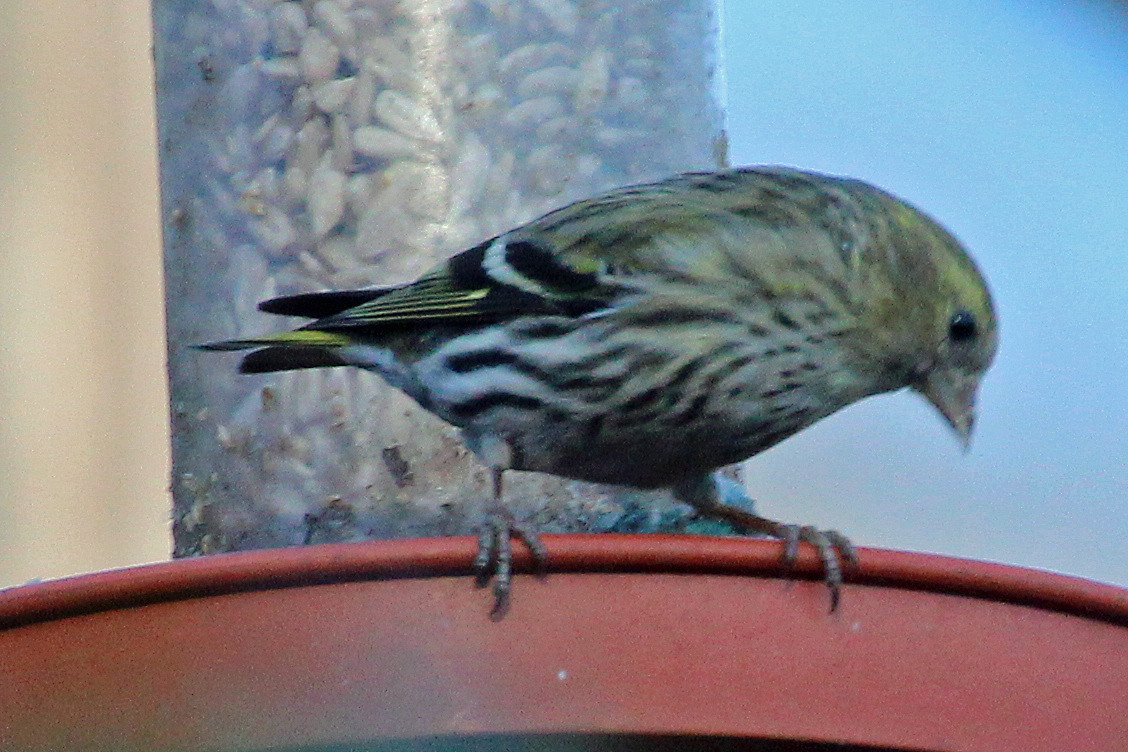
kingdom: Animalia
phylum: Chordata
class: Aves
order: Passeriformes
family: Fringillidae
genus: Spinus
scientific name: Spinus spinus
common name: Eurasian siskin
